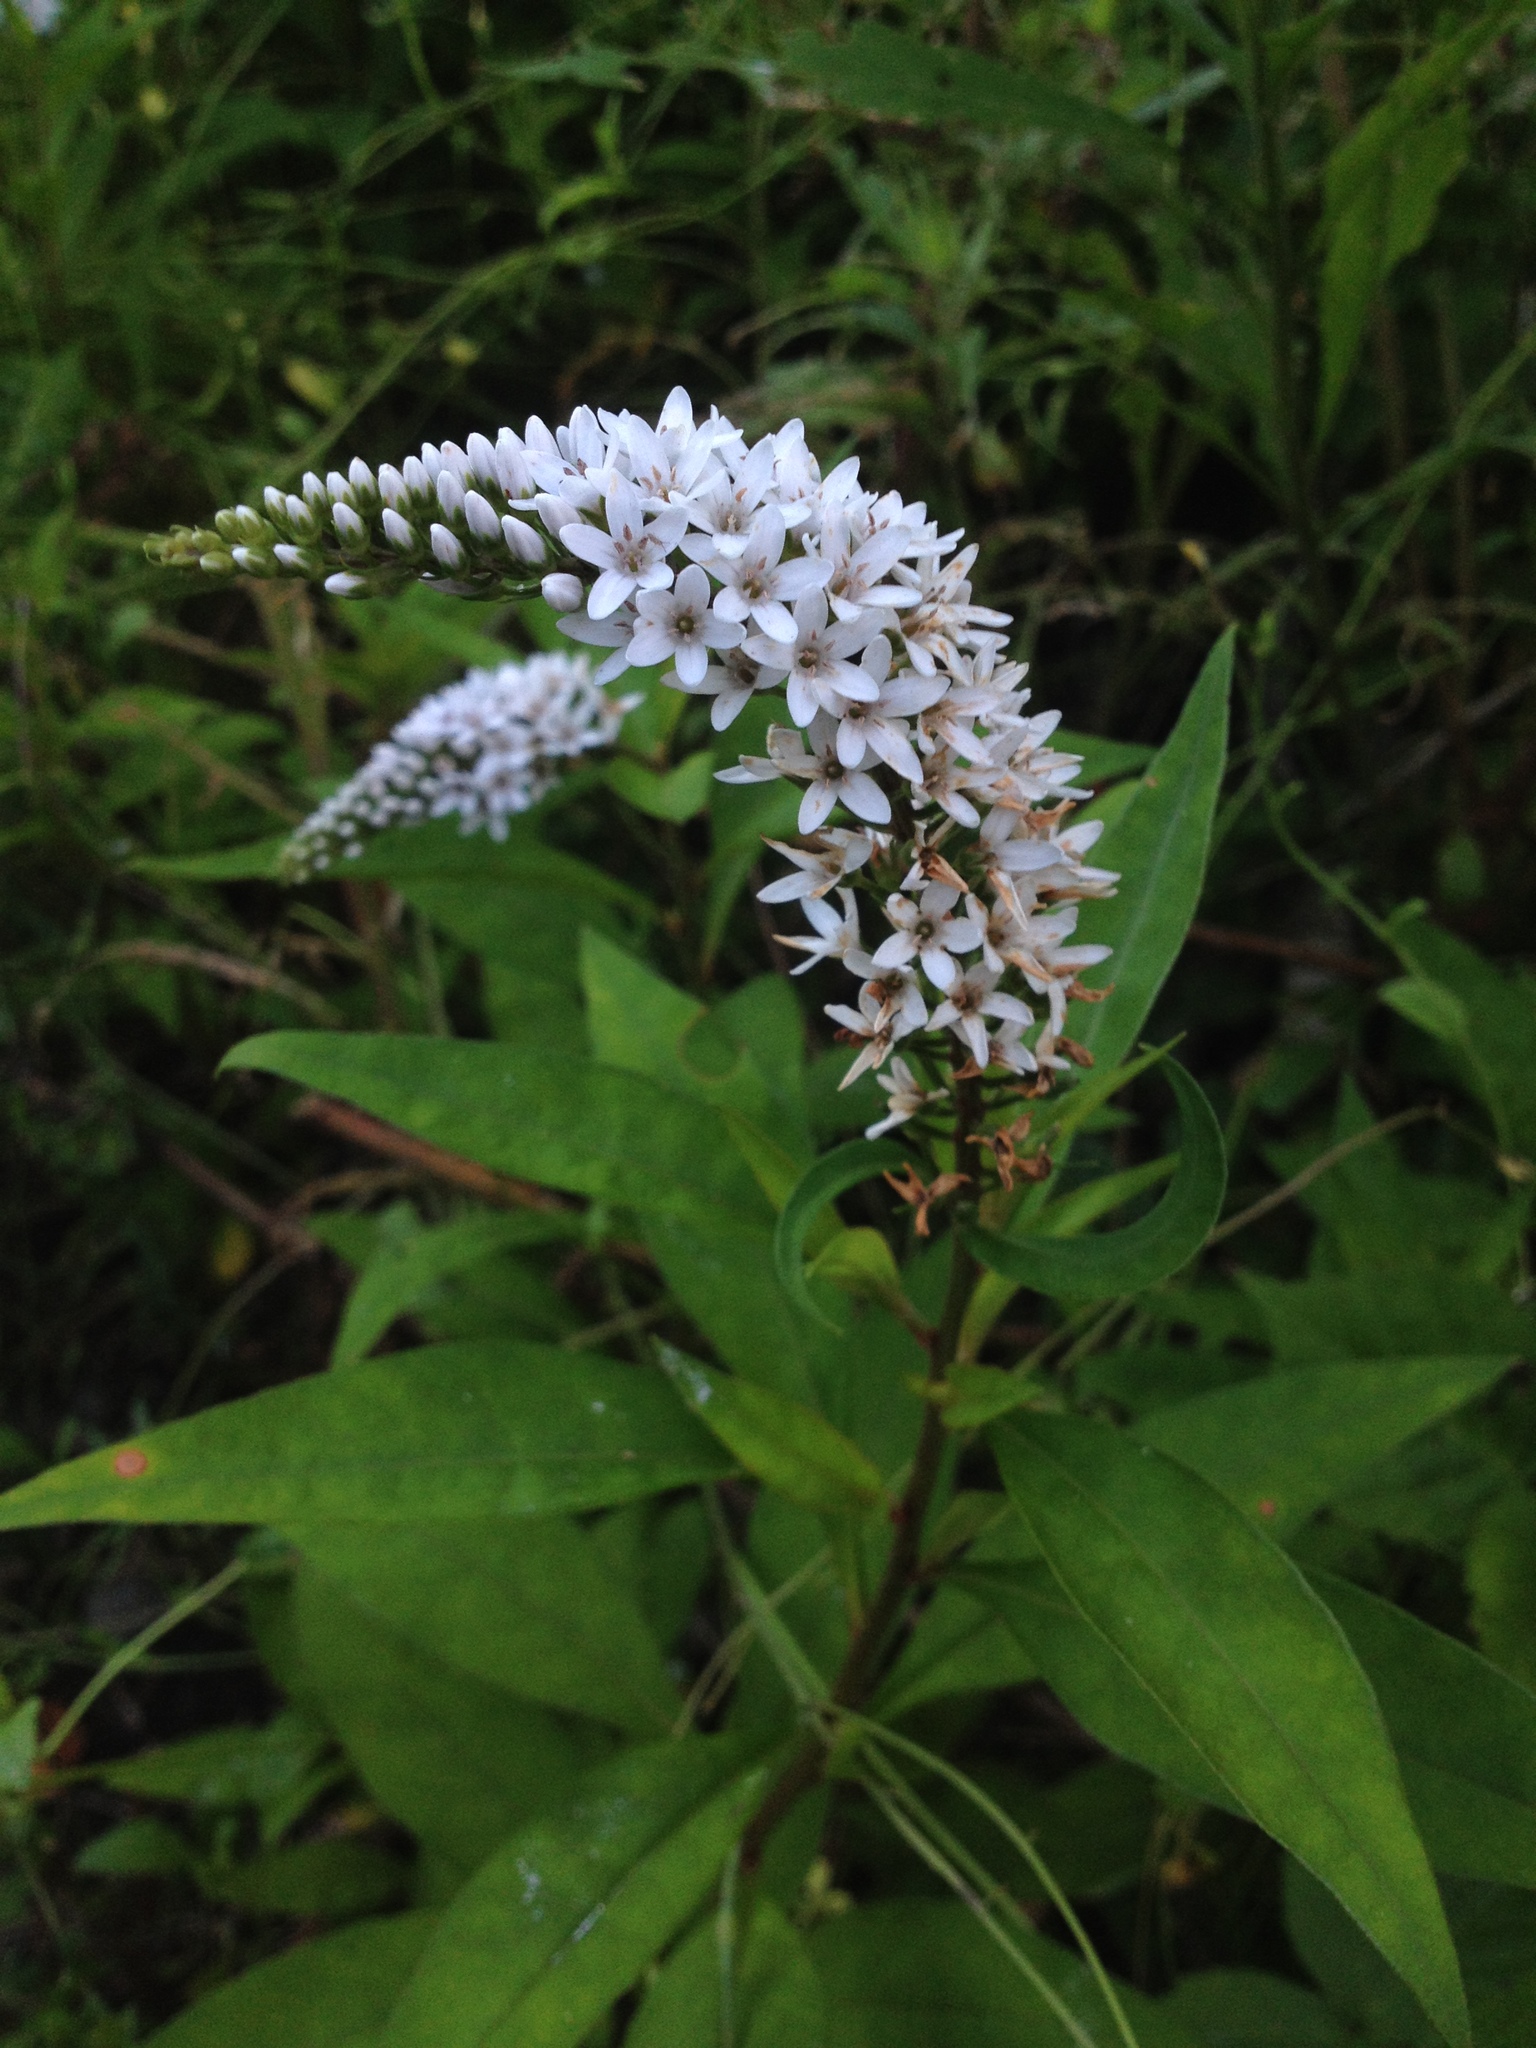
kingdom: Plantae
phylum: Tracheophyta
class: Magnoliopsida
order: Ericales
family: Primulaceae
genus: Lysimachia
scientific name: Lysimachia clethroides
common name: Gooseneck loosestrife
